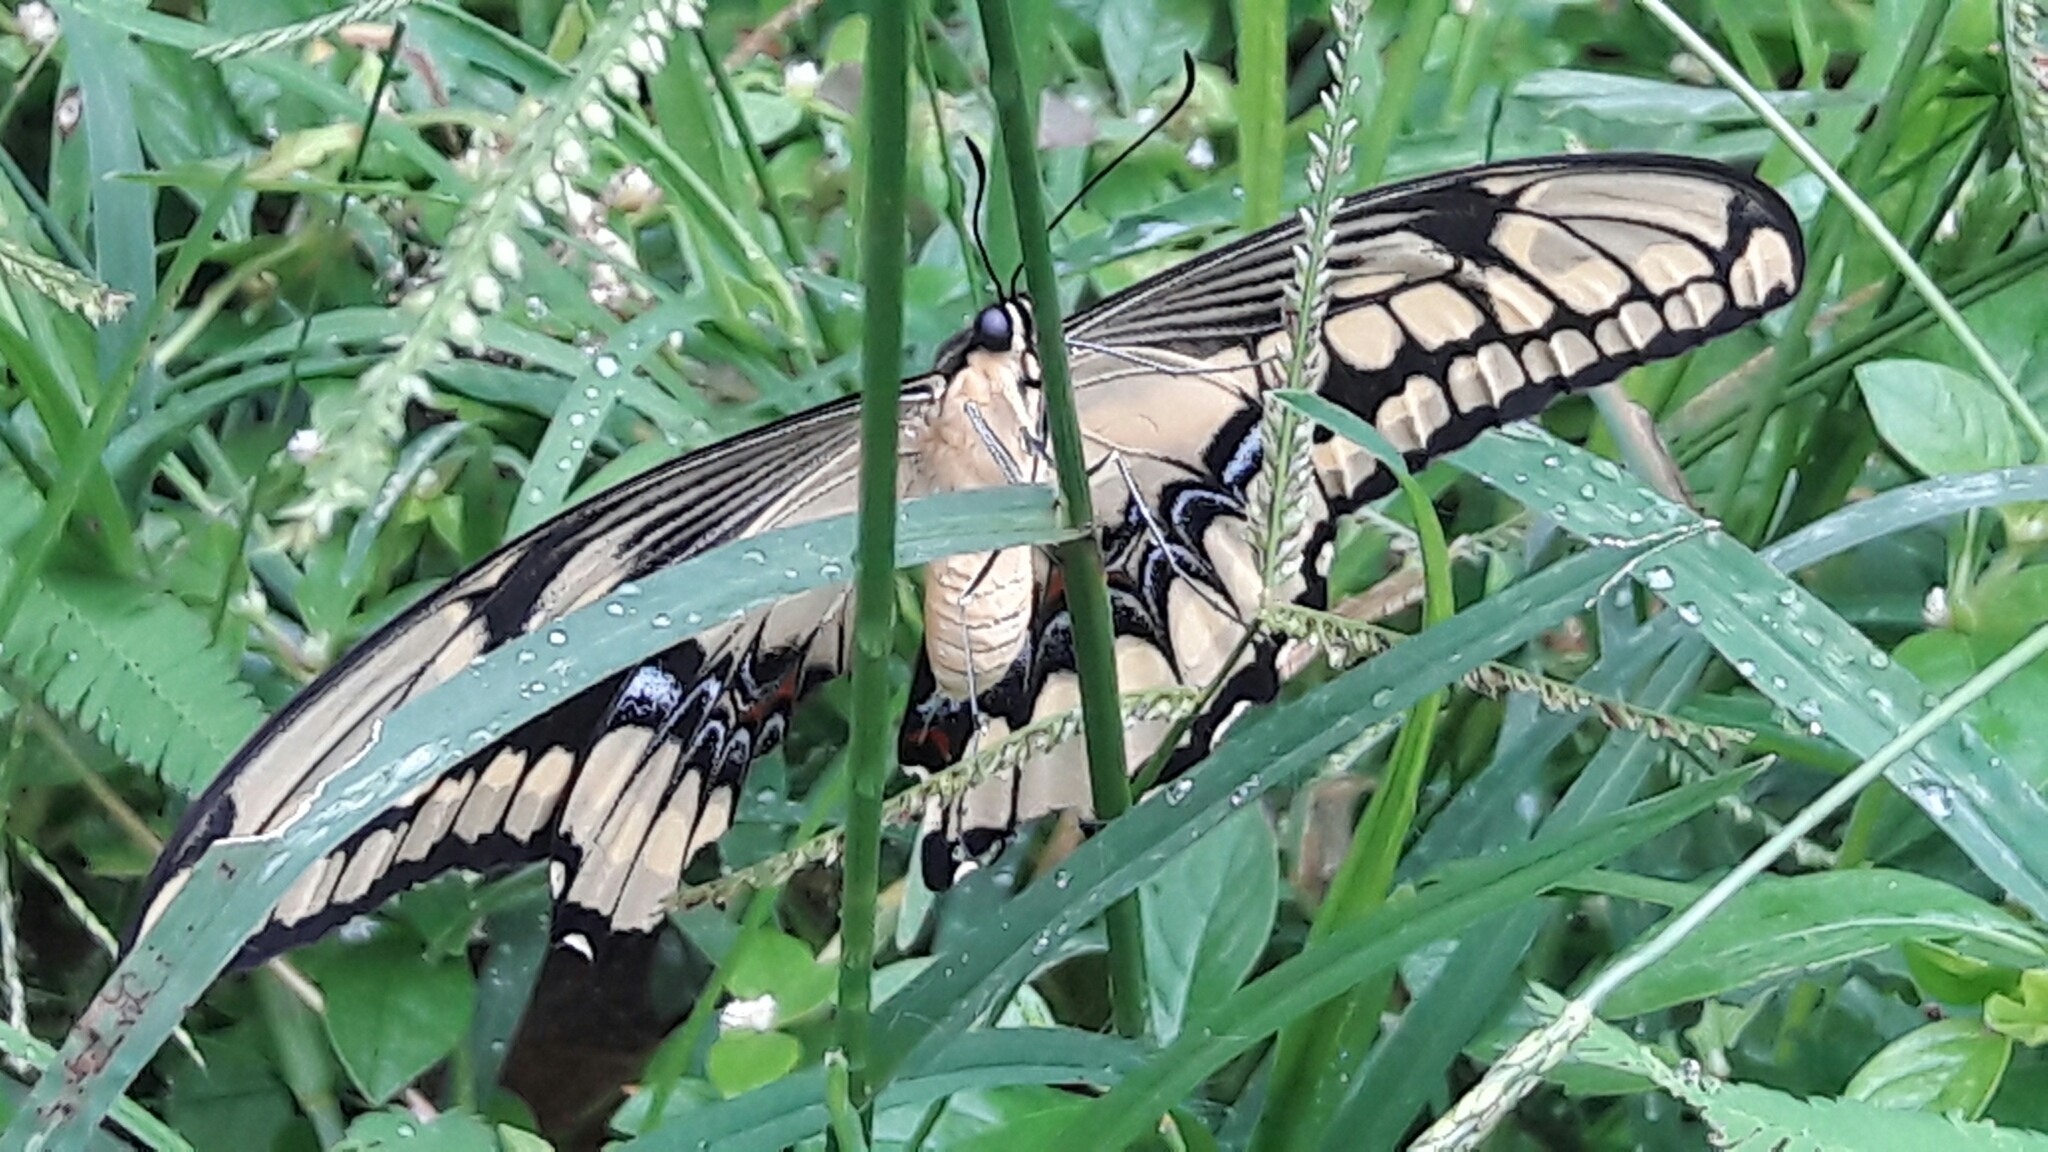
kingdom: Animalia
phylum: Arthropoda
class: Insecta
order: Lepidoptera
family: Papilionidae
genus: Papilio
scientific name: Papilio thoas
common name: King swallowtail
